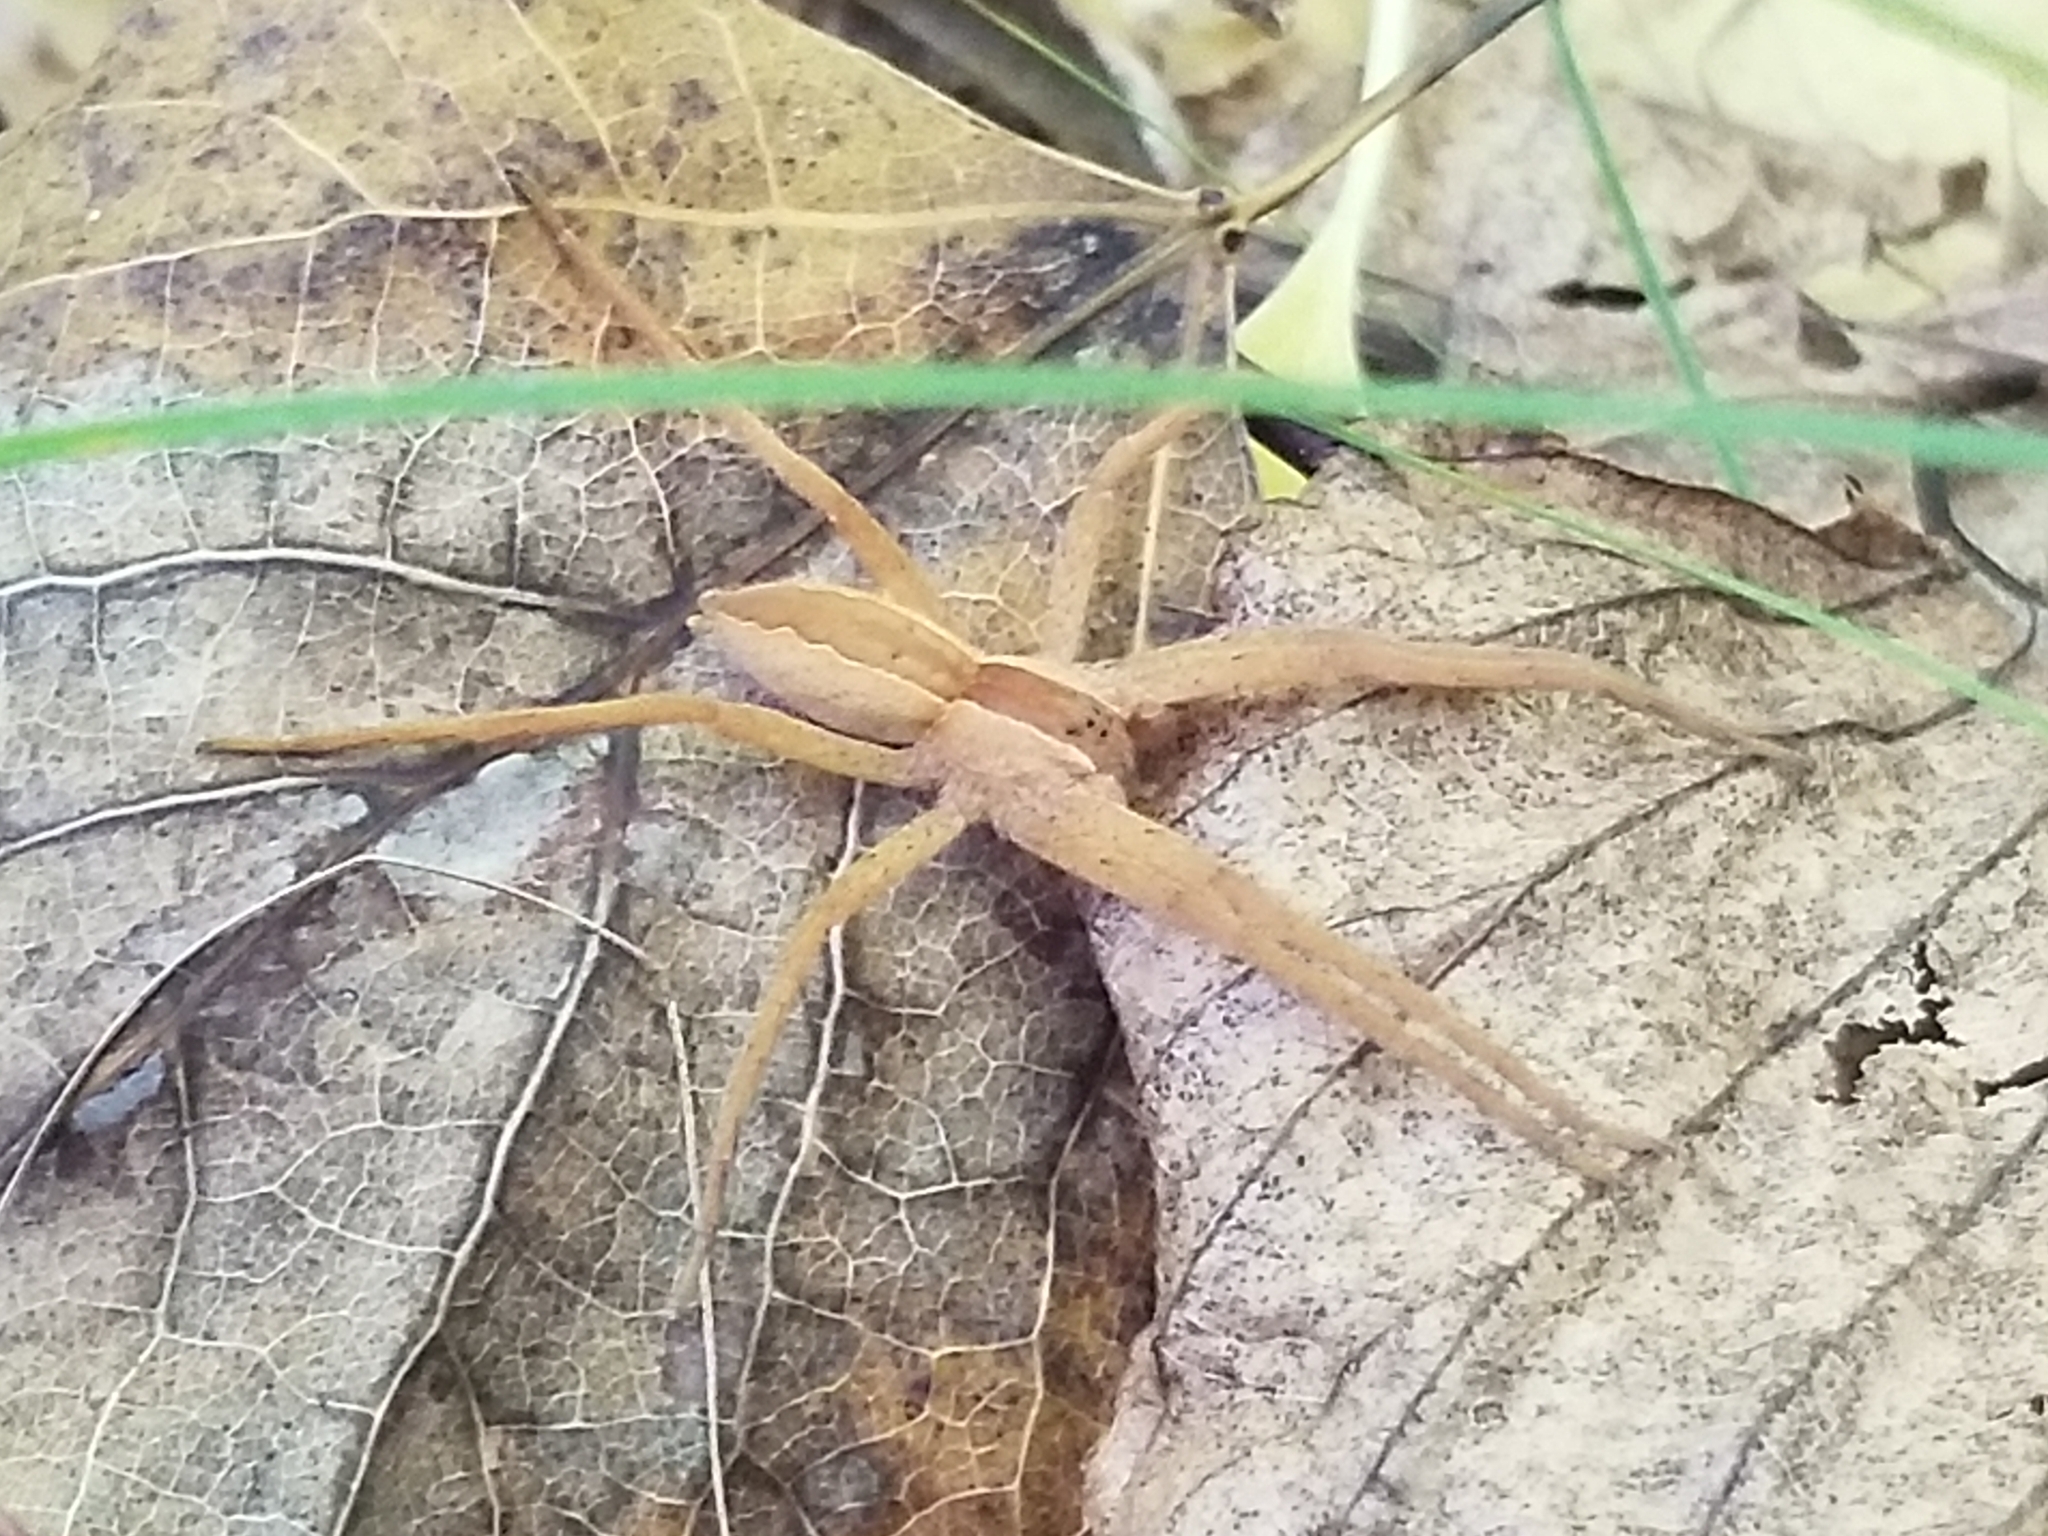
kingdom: Animalia
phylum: Arthropoda
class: Arachnida
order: Araneae
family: Pisauridae
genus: Pisaurina
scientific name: Pisaurina mira
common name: American nursery web spider
